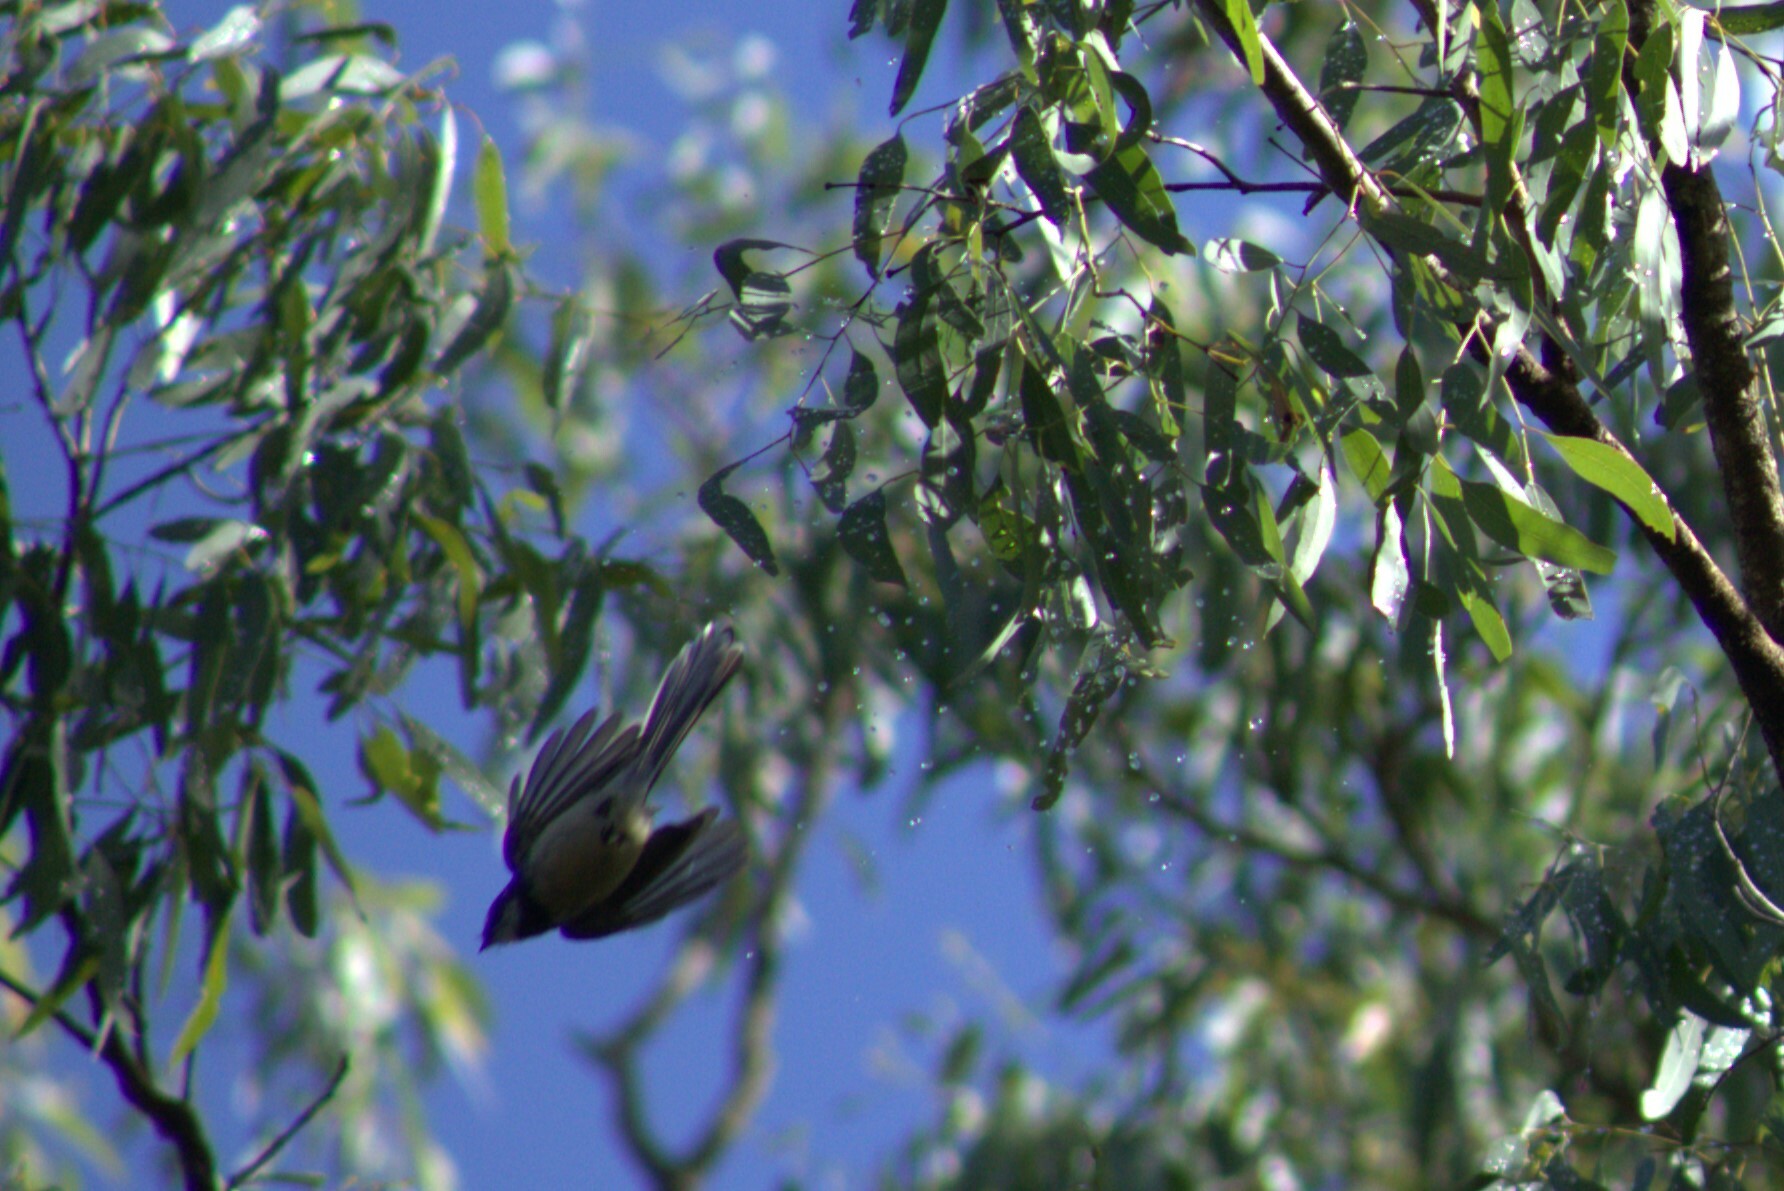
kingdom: Animalia
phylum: Chordata
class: Aves
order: Passeriformes
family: Rhipiduridae
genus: Rhipidura
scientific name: Rhipidura albiscapa
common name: Grey fantail
